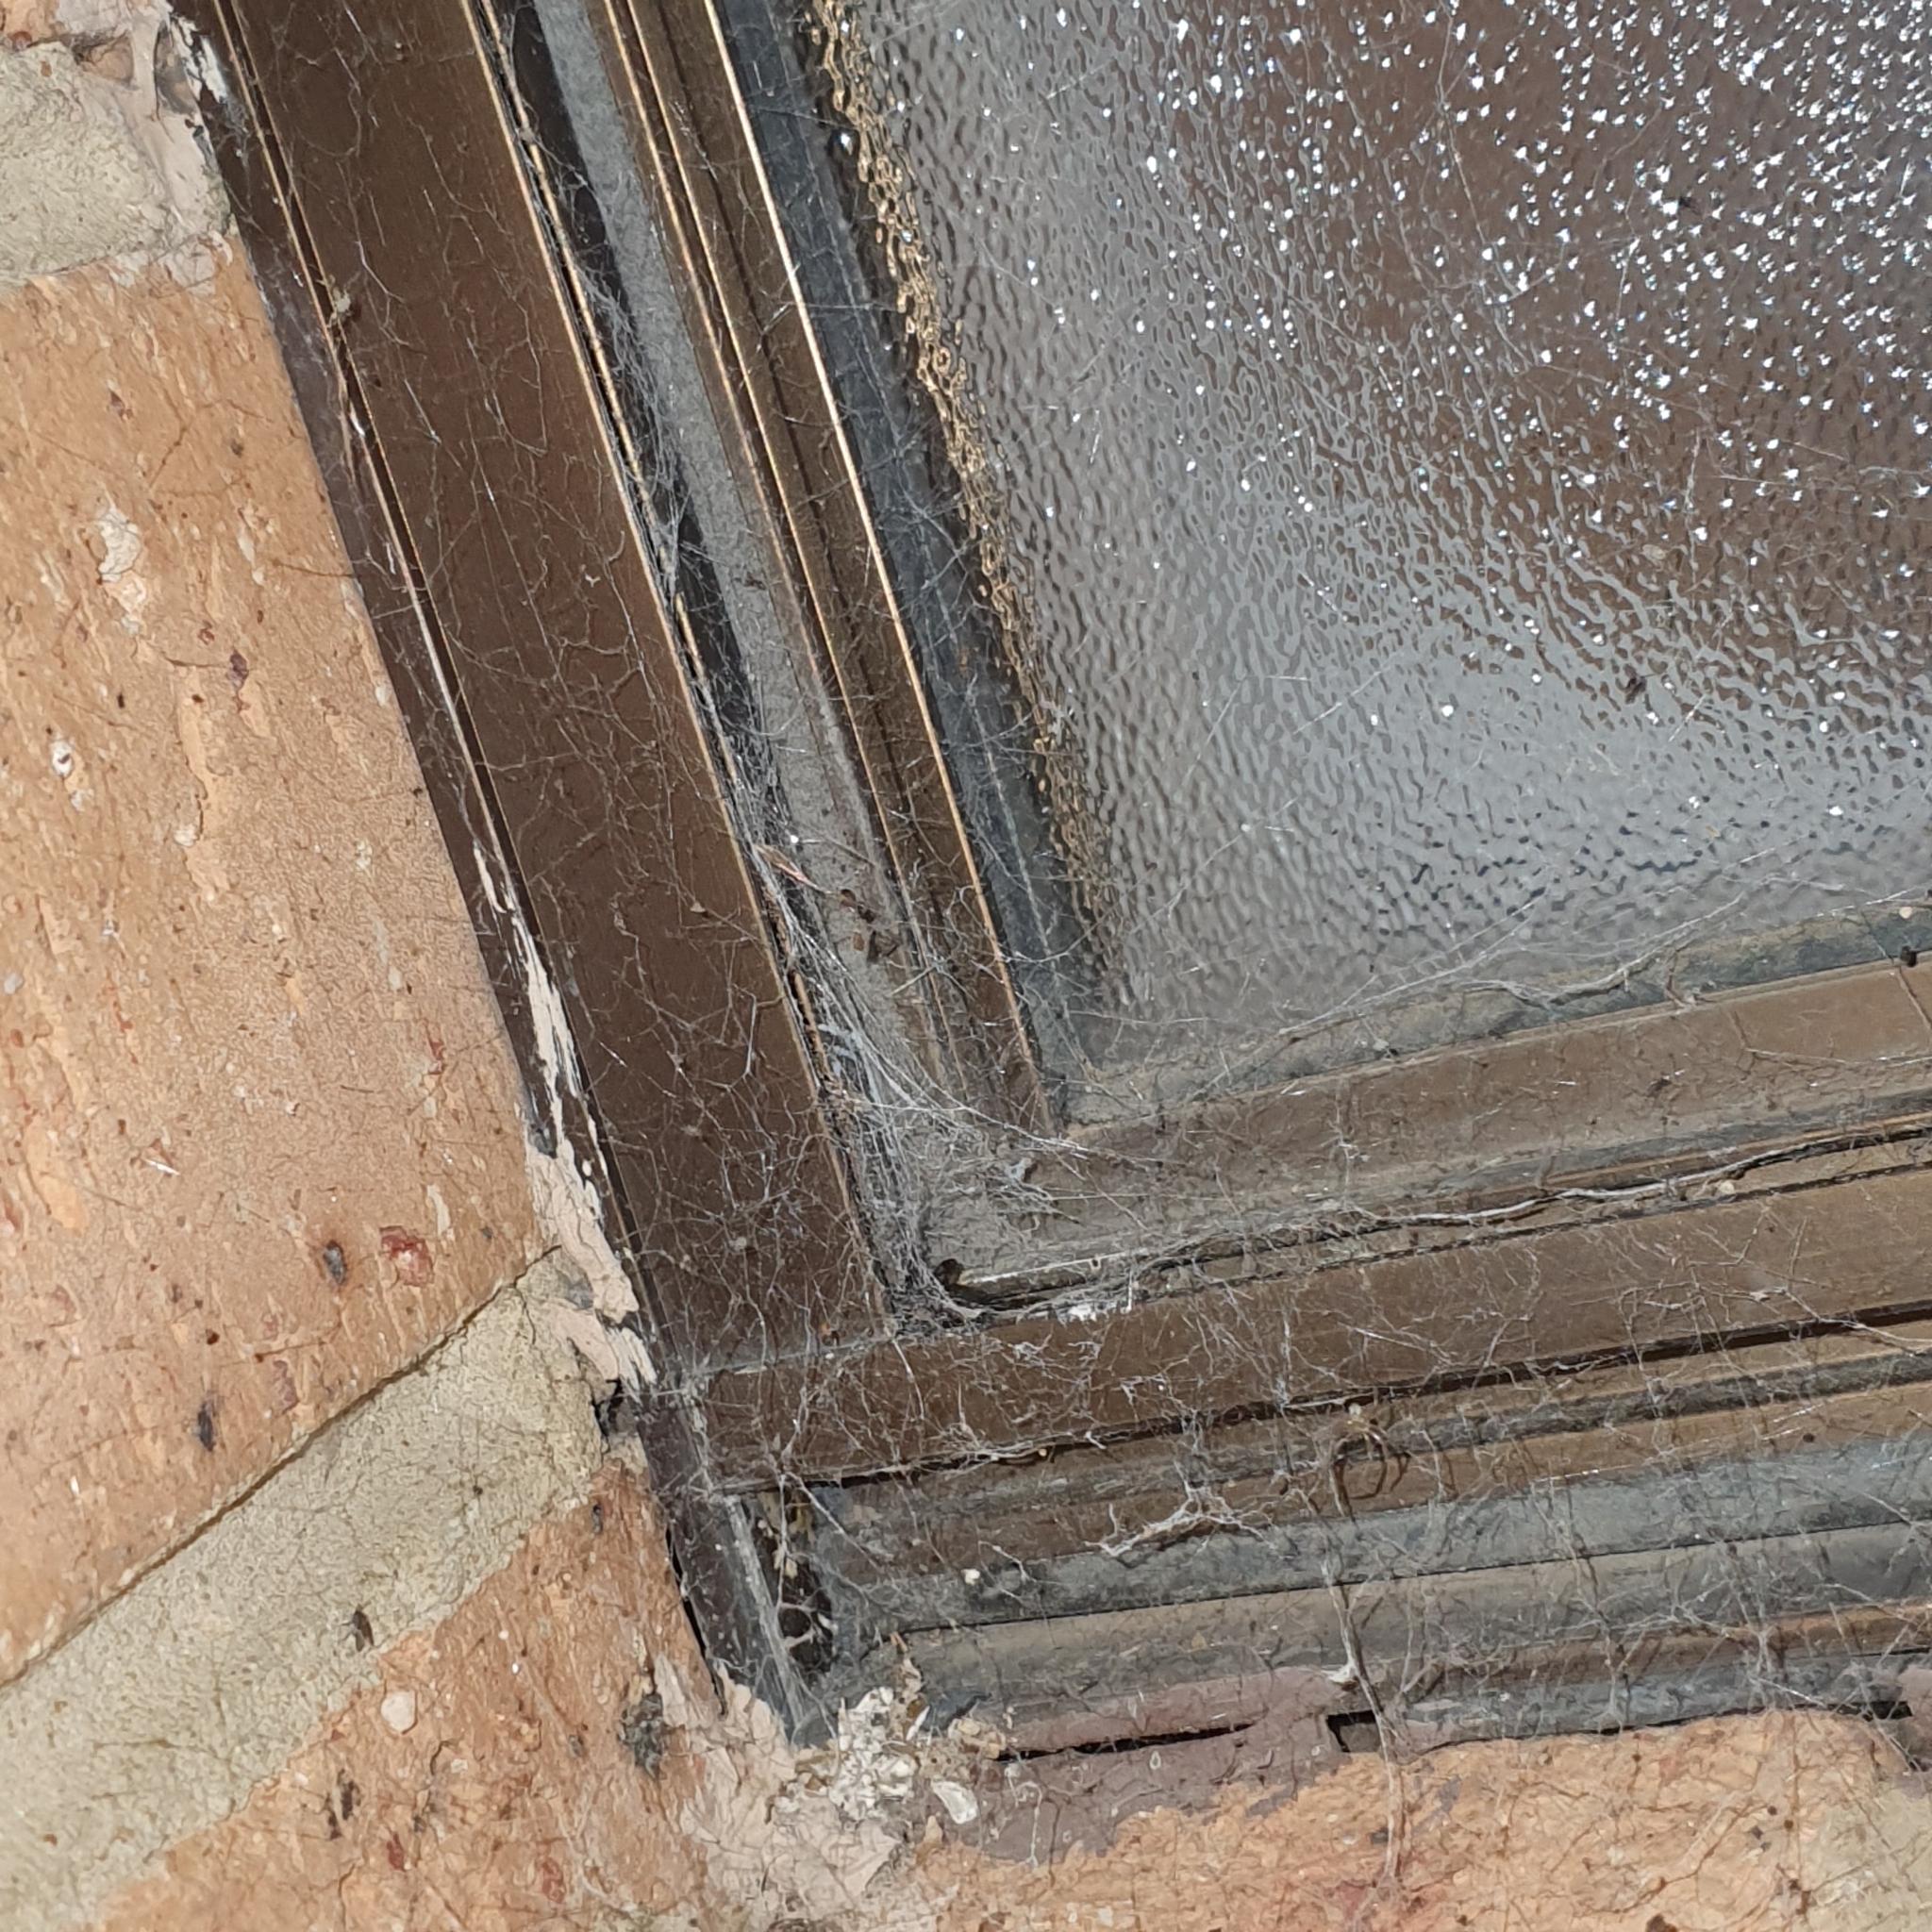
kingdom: Animalia
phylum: Arthropoda
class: Arachnida
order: Araneae
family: Desidae
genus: Badumna
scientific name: Badumna insignis
